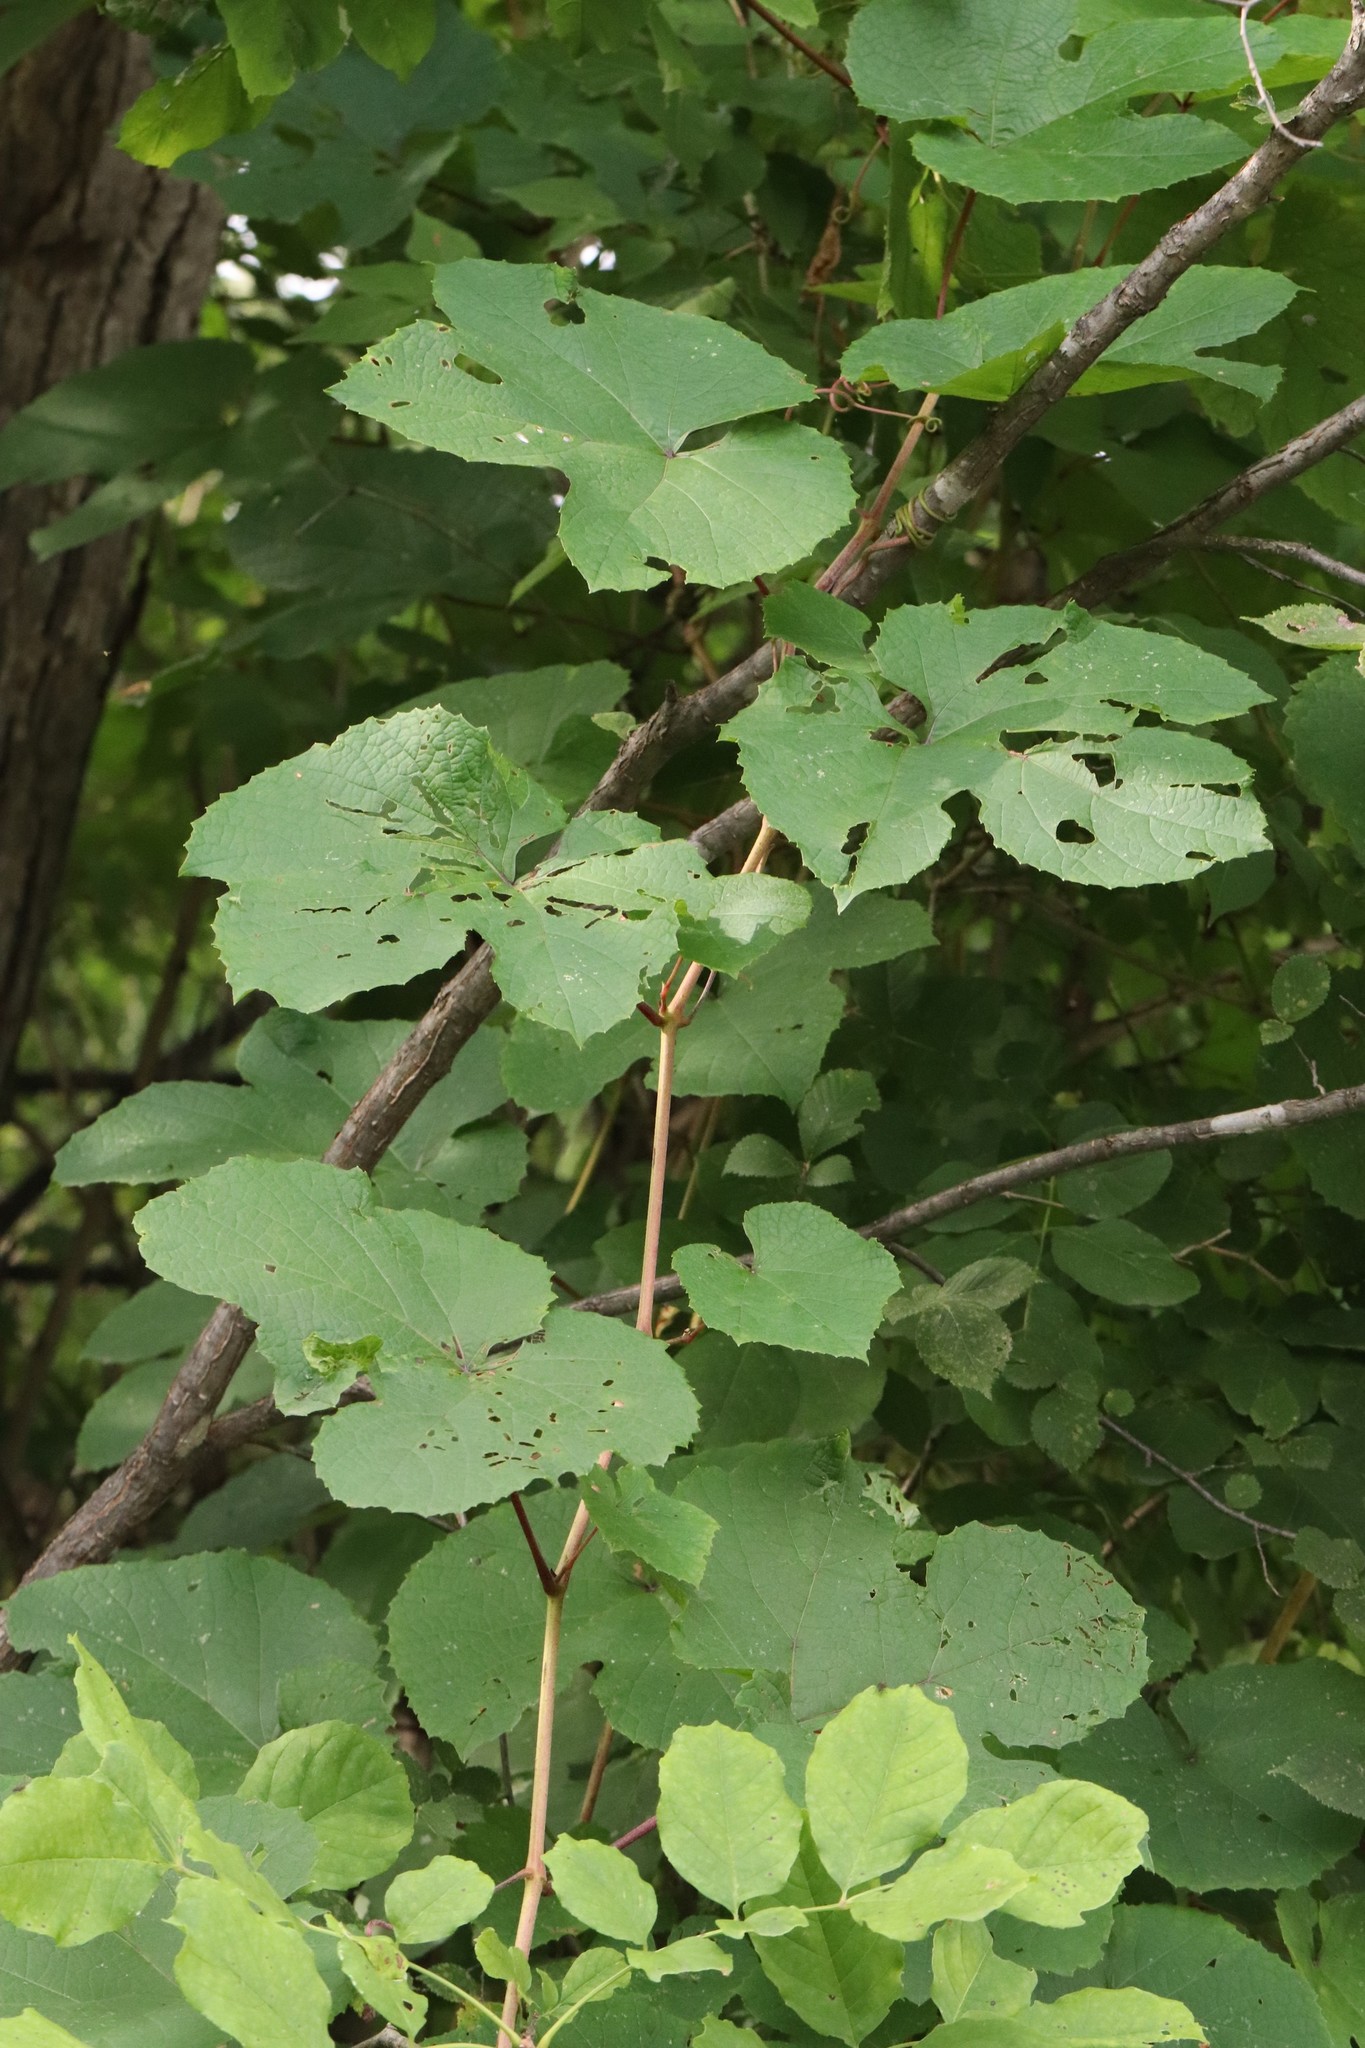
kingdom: Plantae
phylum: Tracheophyta
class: Magnoliopsida
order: Vitales
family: Vitaceae
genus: Vitis
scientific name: Vitis amurensis
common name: Amur grape
